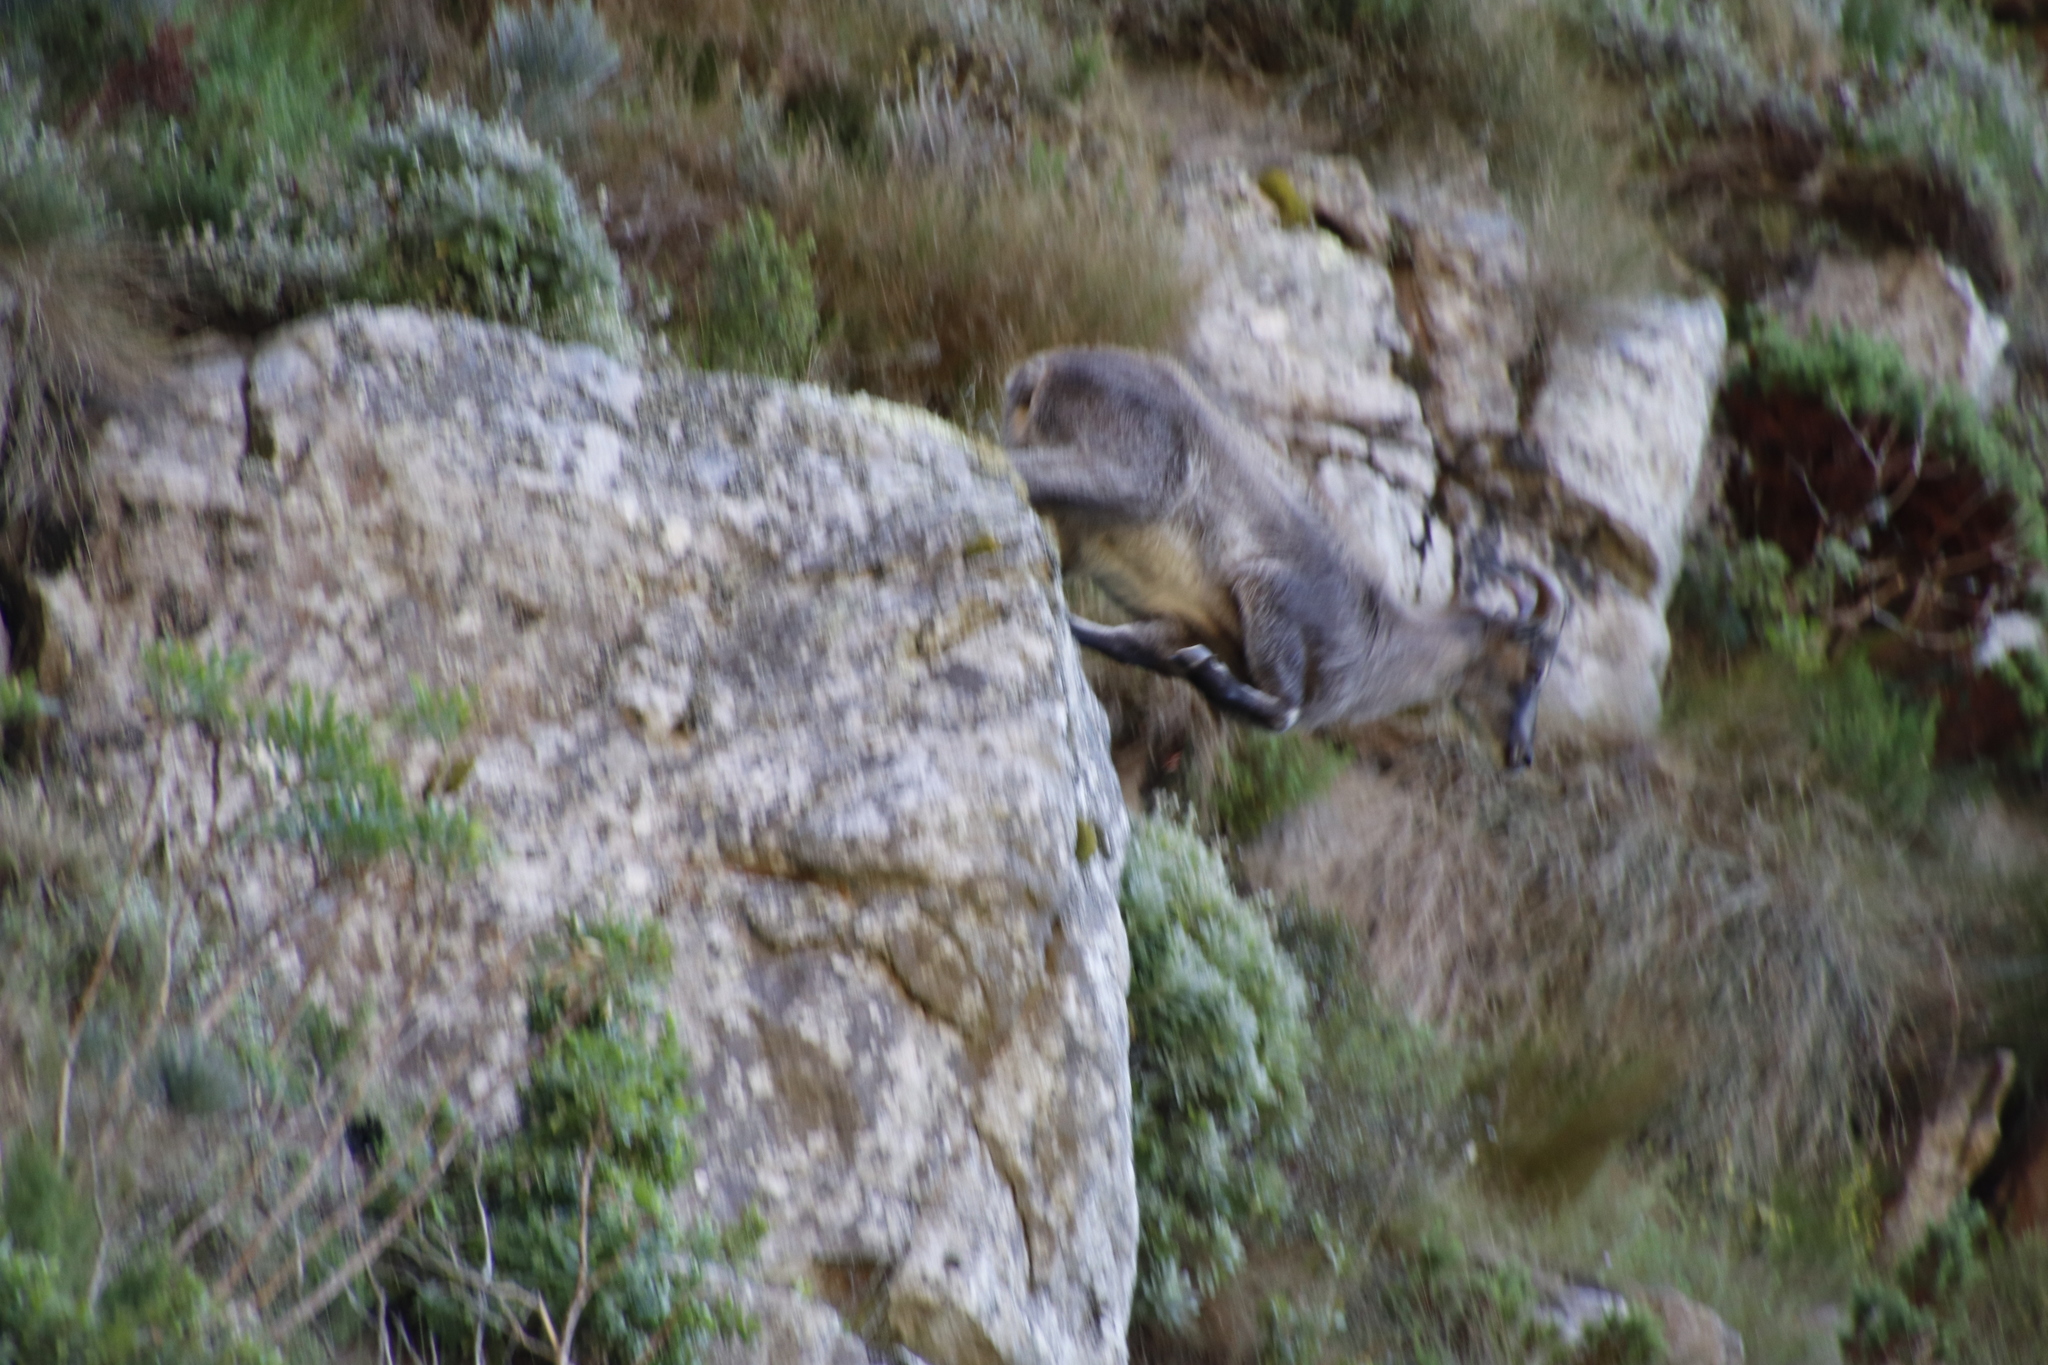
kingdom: Animalia
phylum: Chordata
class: Mammalia
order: Artiodactyla
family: Bovidae
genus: Hemitragus
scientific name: Hemitragus jemlahicus
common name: Himalayan tahr
